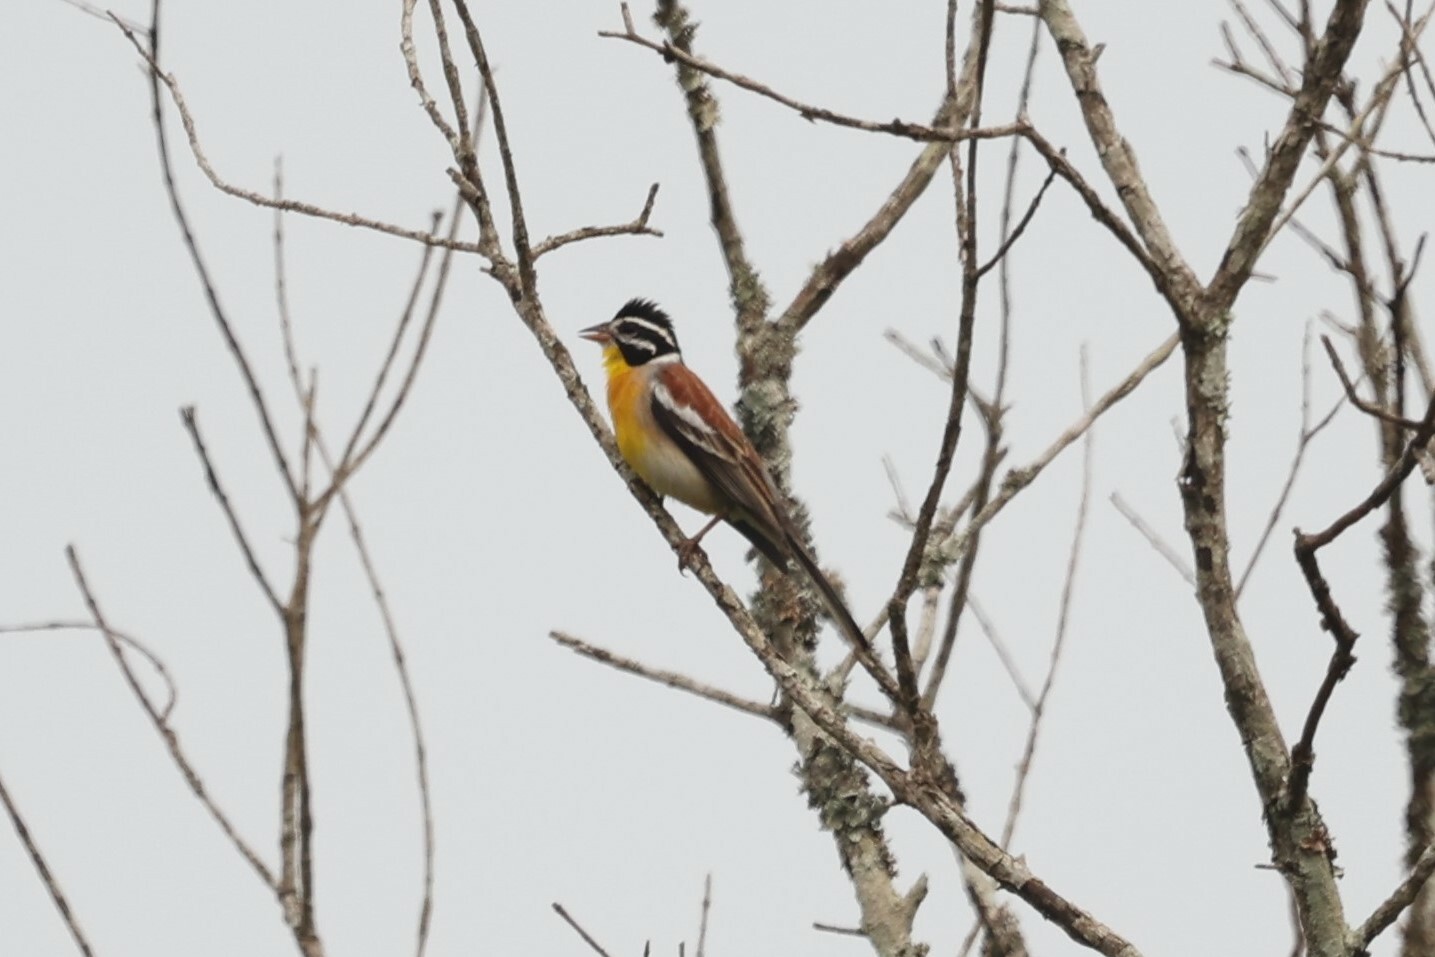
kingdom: Animalia
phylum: Chordata
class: Aves
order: Passeriformes
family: Emberizidae
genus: Emberiza
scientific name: Emberiza flaviventris
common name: Golden-breasted bunting
